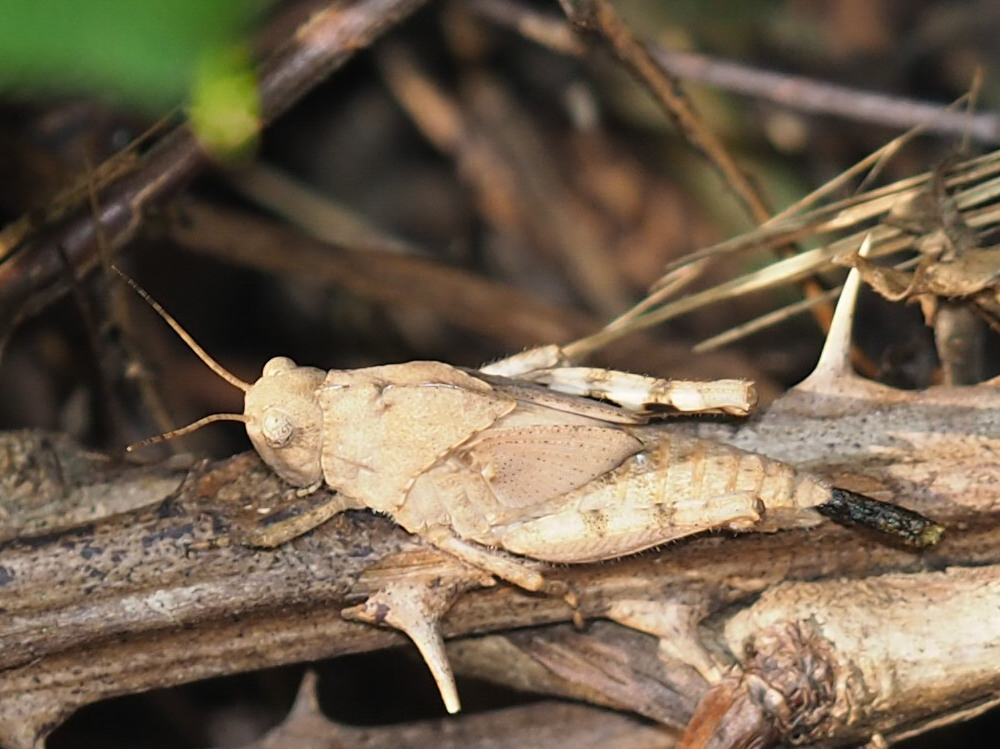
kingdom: Animalia
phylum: Arthropoda
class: Insecta
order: Orthoptera
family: Acrididae
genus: Dissosteira
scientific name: Dissosteira carolina
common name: Carolina grasshopper
